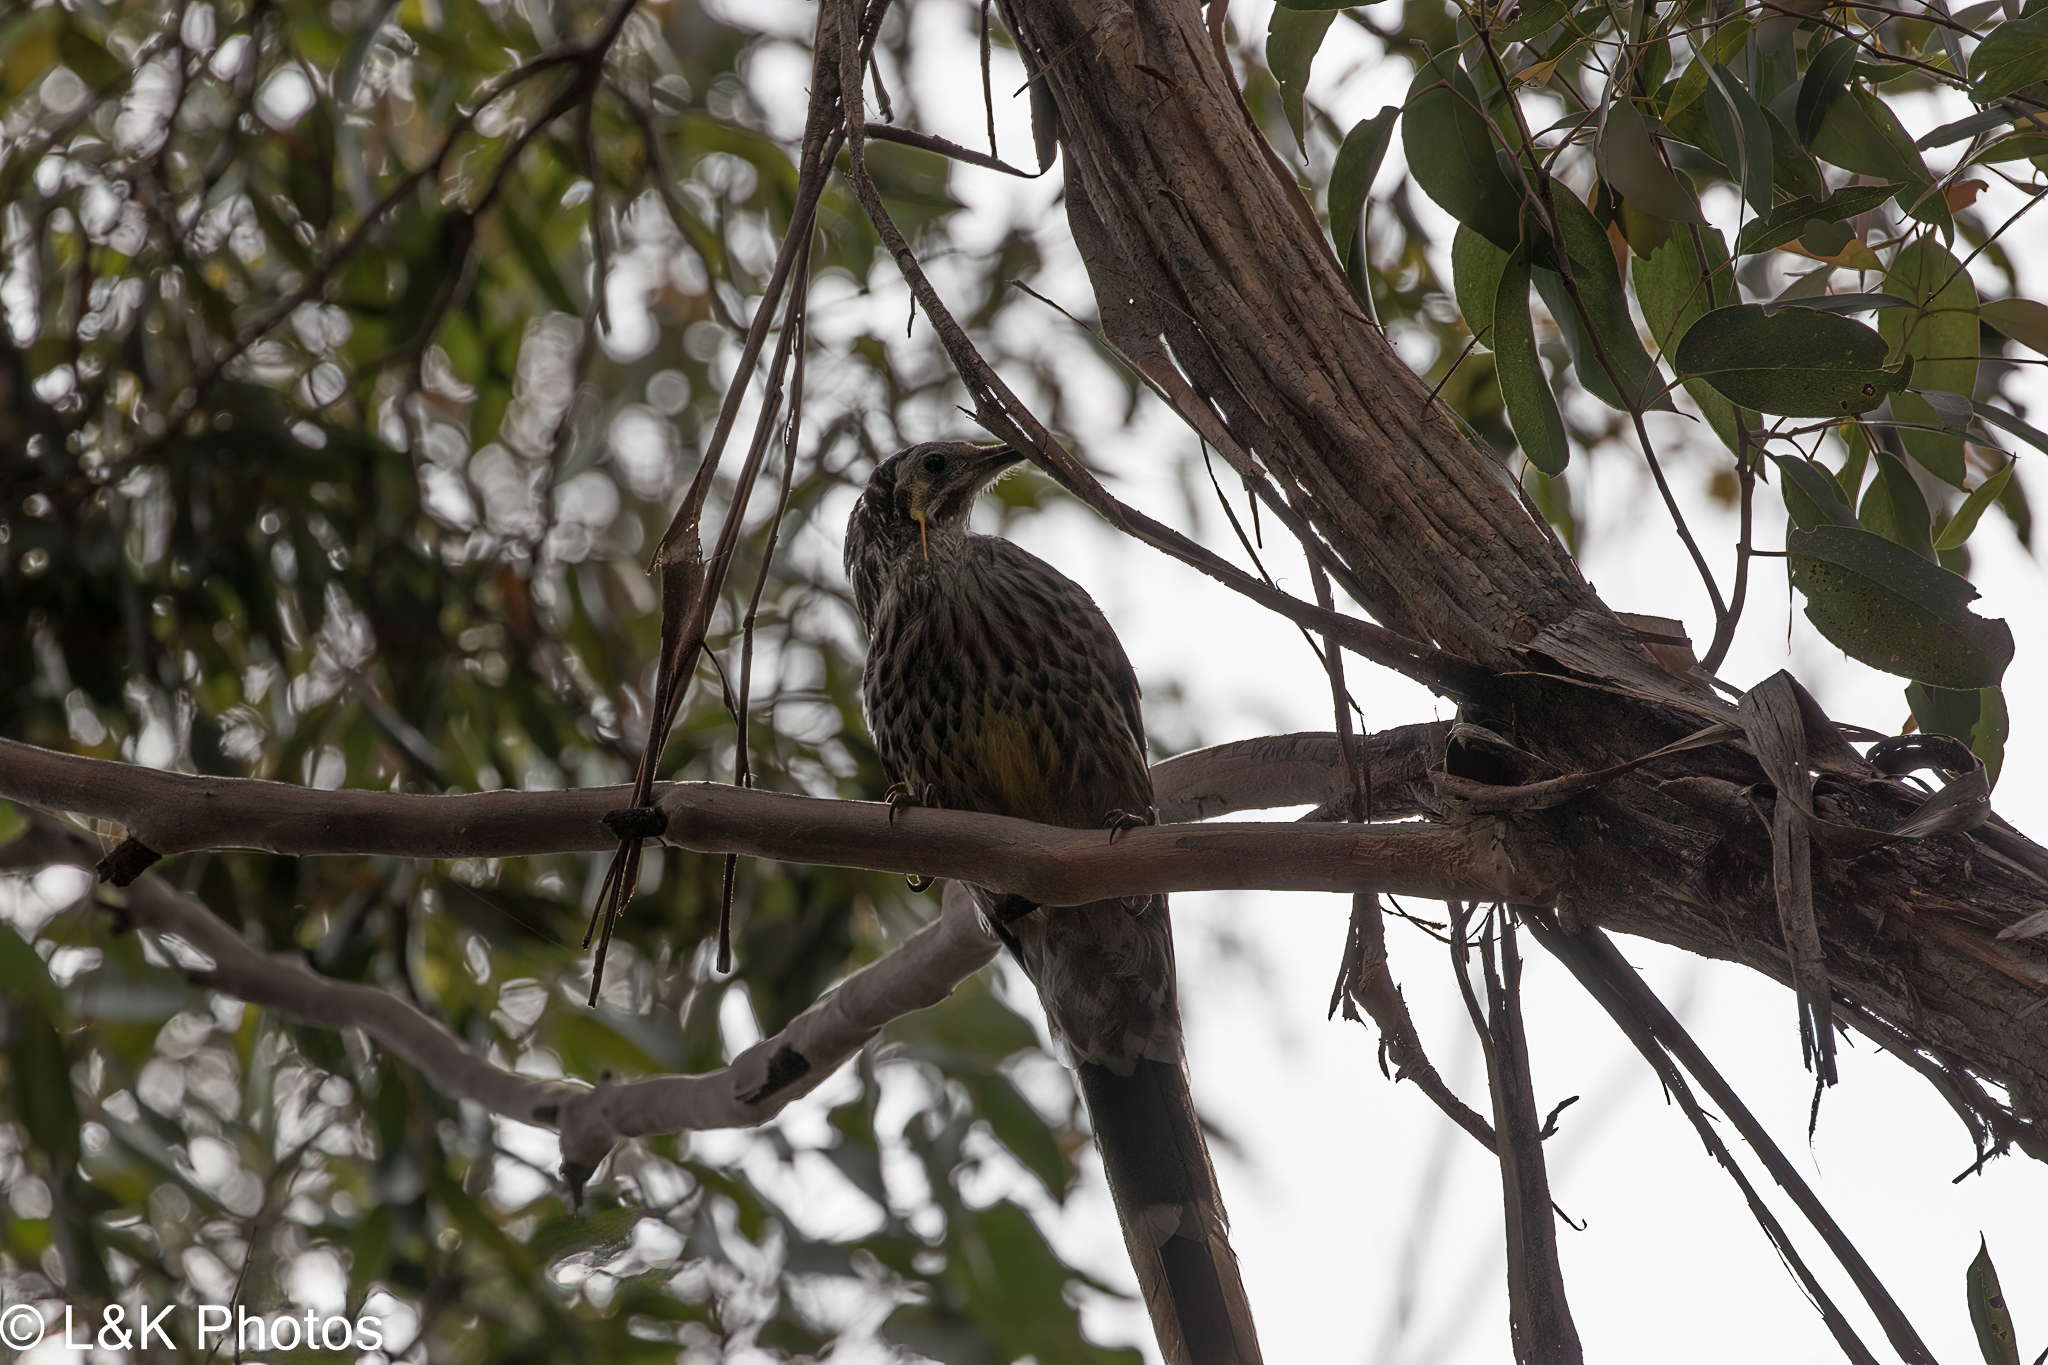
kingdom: Animalia
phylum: Chordata
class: Aves
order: Passeriformes
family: Meliphagidae
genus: Anthochaera
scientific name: Anthochaera paradoxa
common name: Yellow wattlebird
